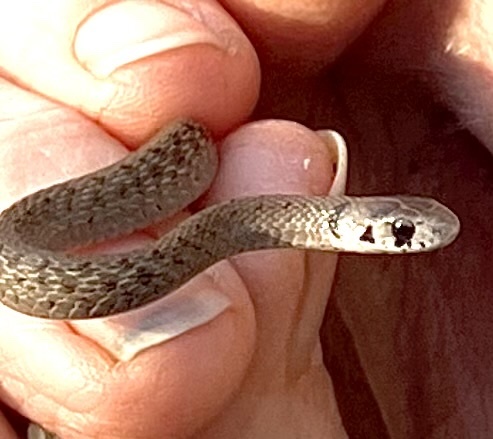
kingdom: Animalia
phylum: Chordata
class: Squamata
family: Colubridae
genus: Storeria
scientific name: Storeria dekayi
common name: (dekay’s) brown snake
